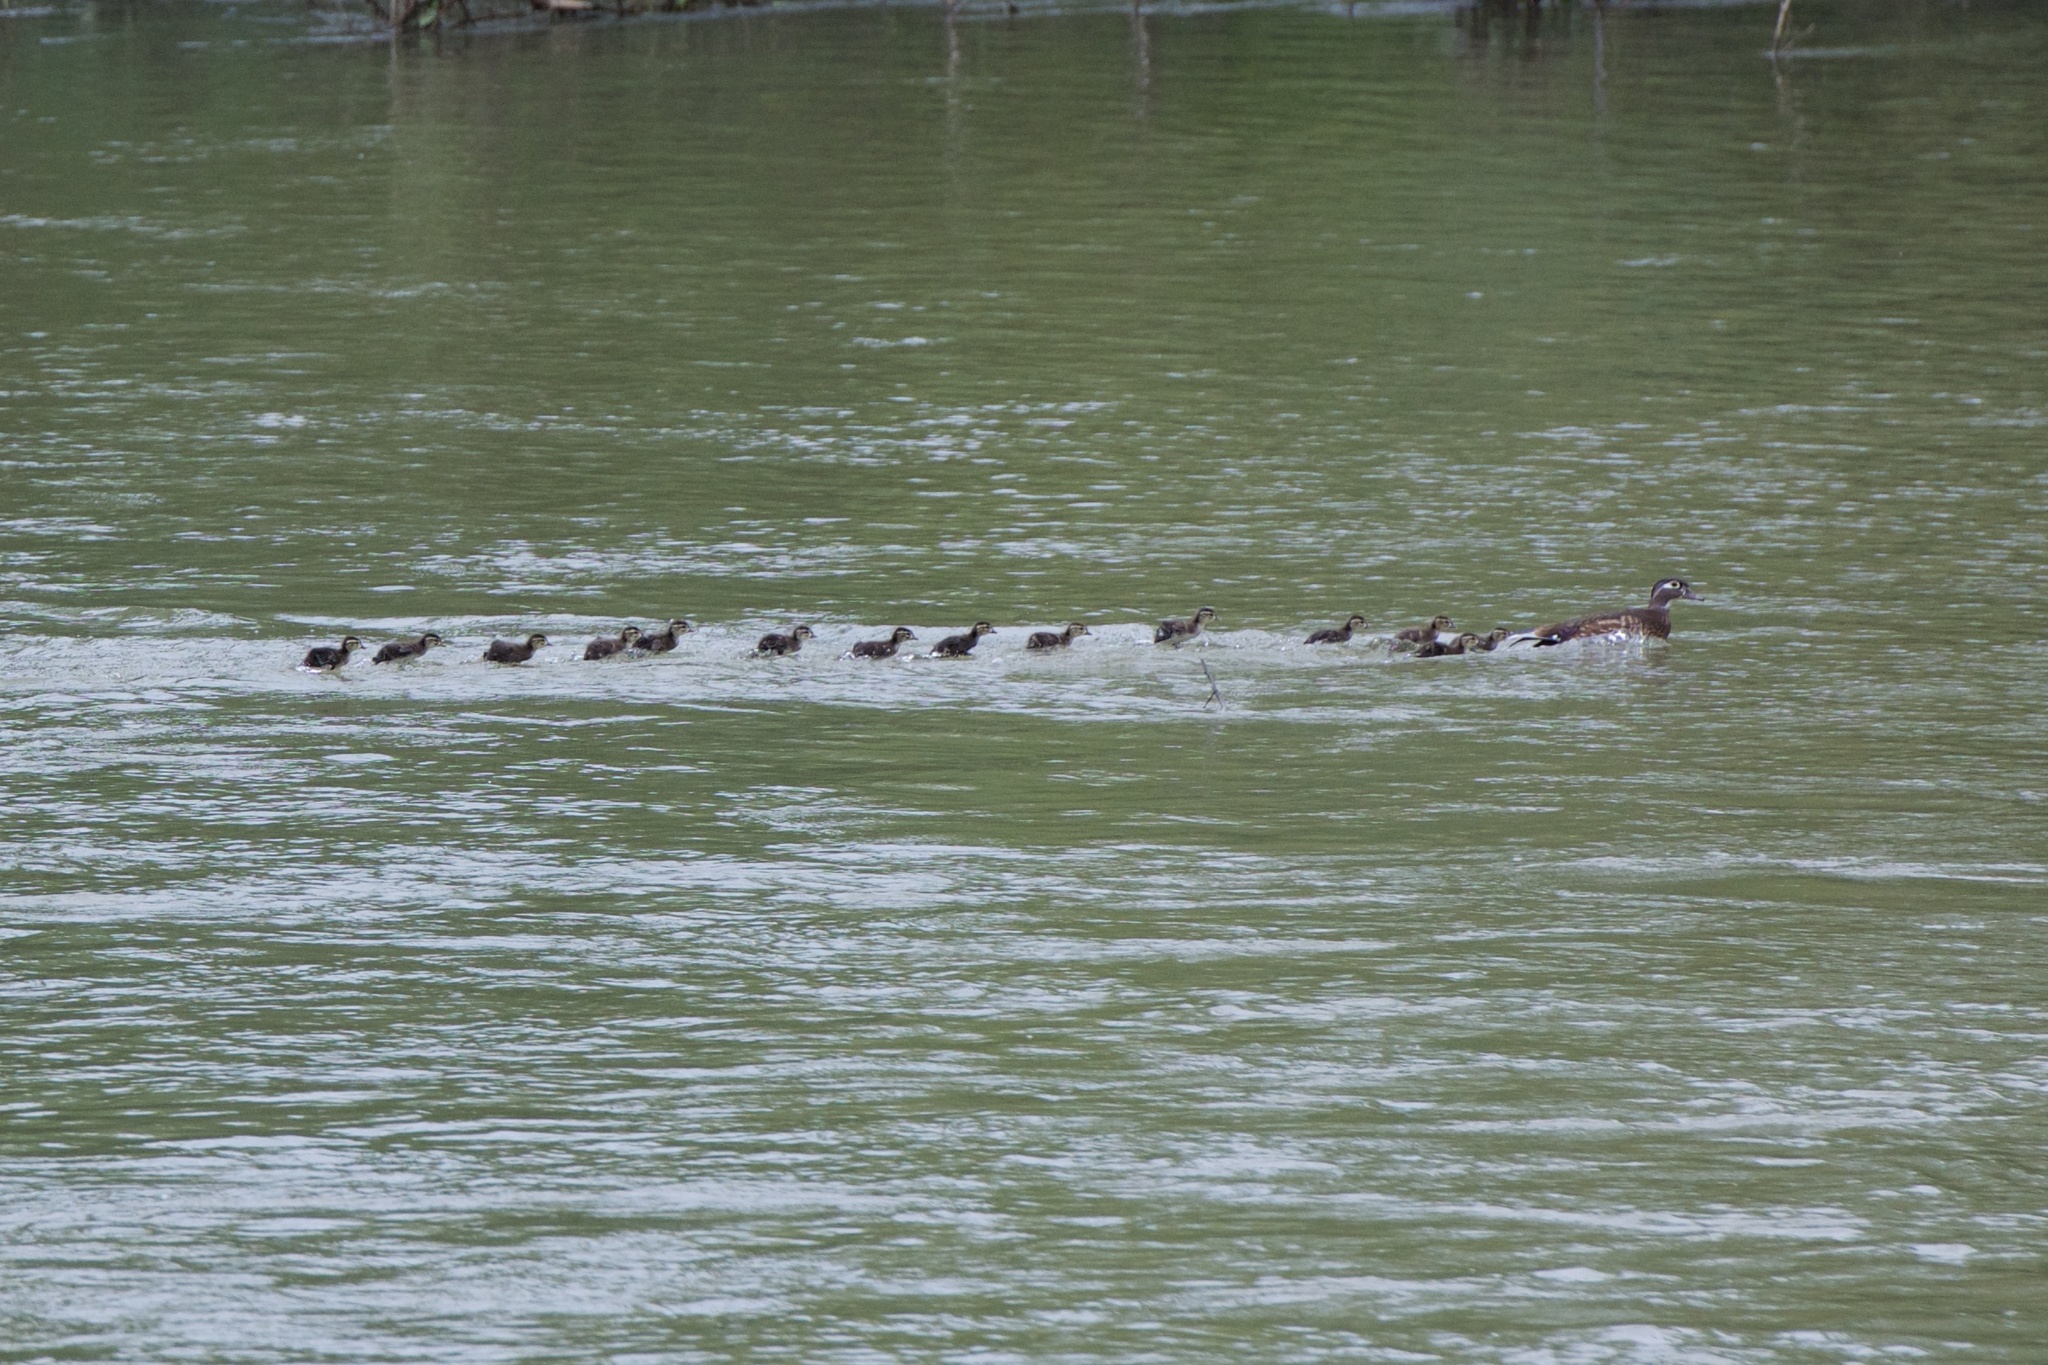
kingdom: Animalia
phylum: Chordata
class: Aves
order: Anseriformes
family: Anatidae
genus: Aix
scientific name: Aix sponsa
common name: Wood duck
